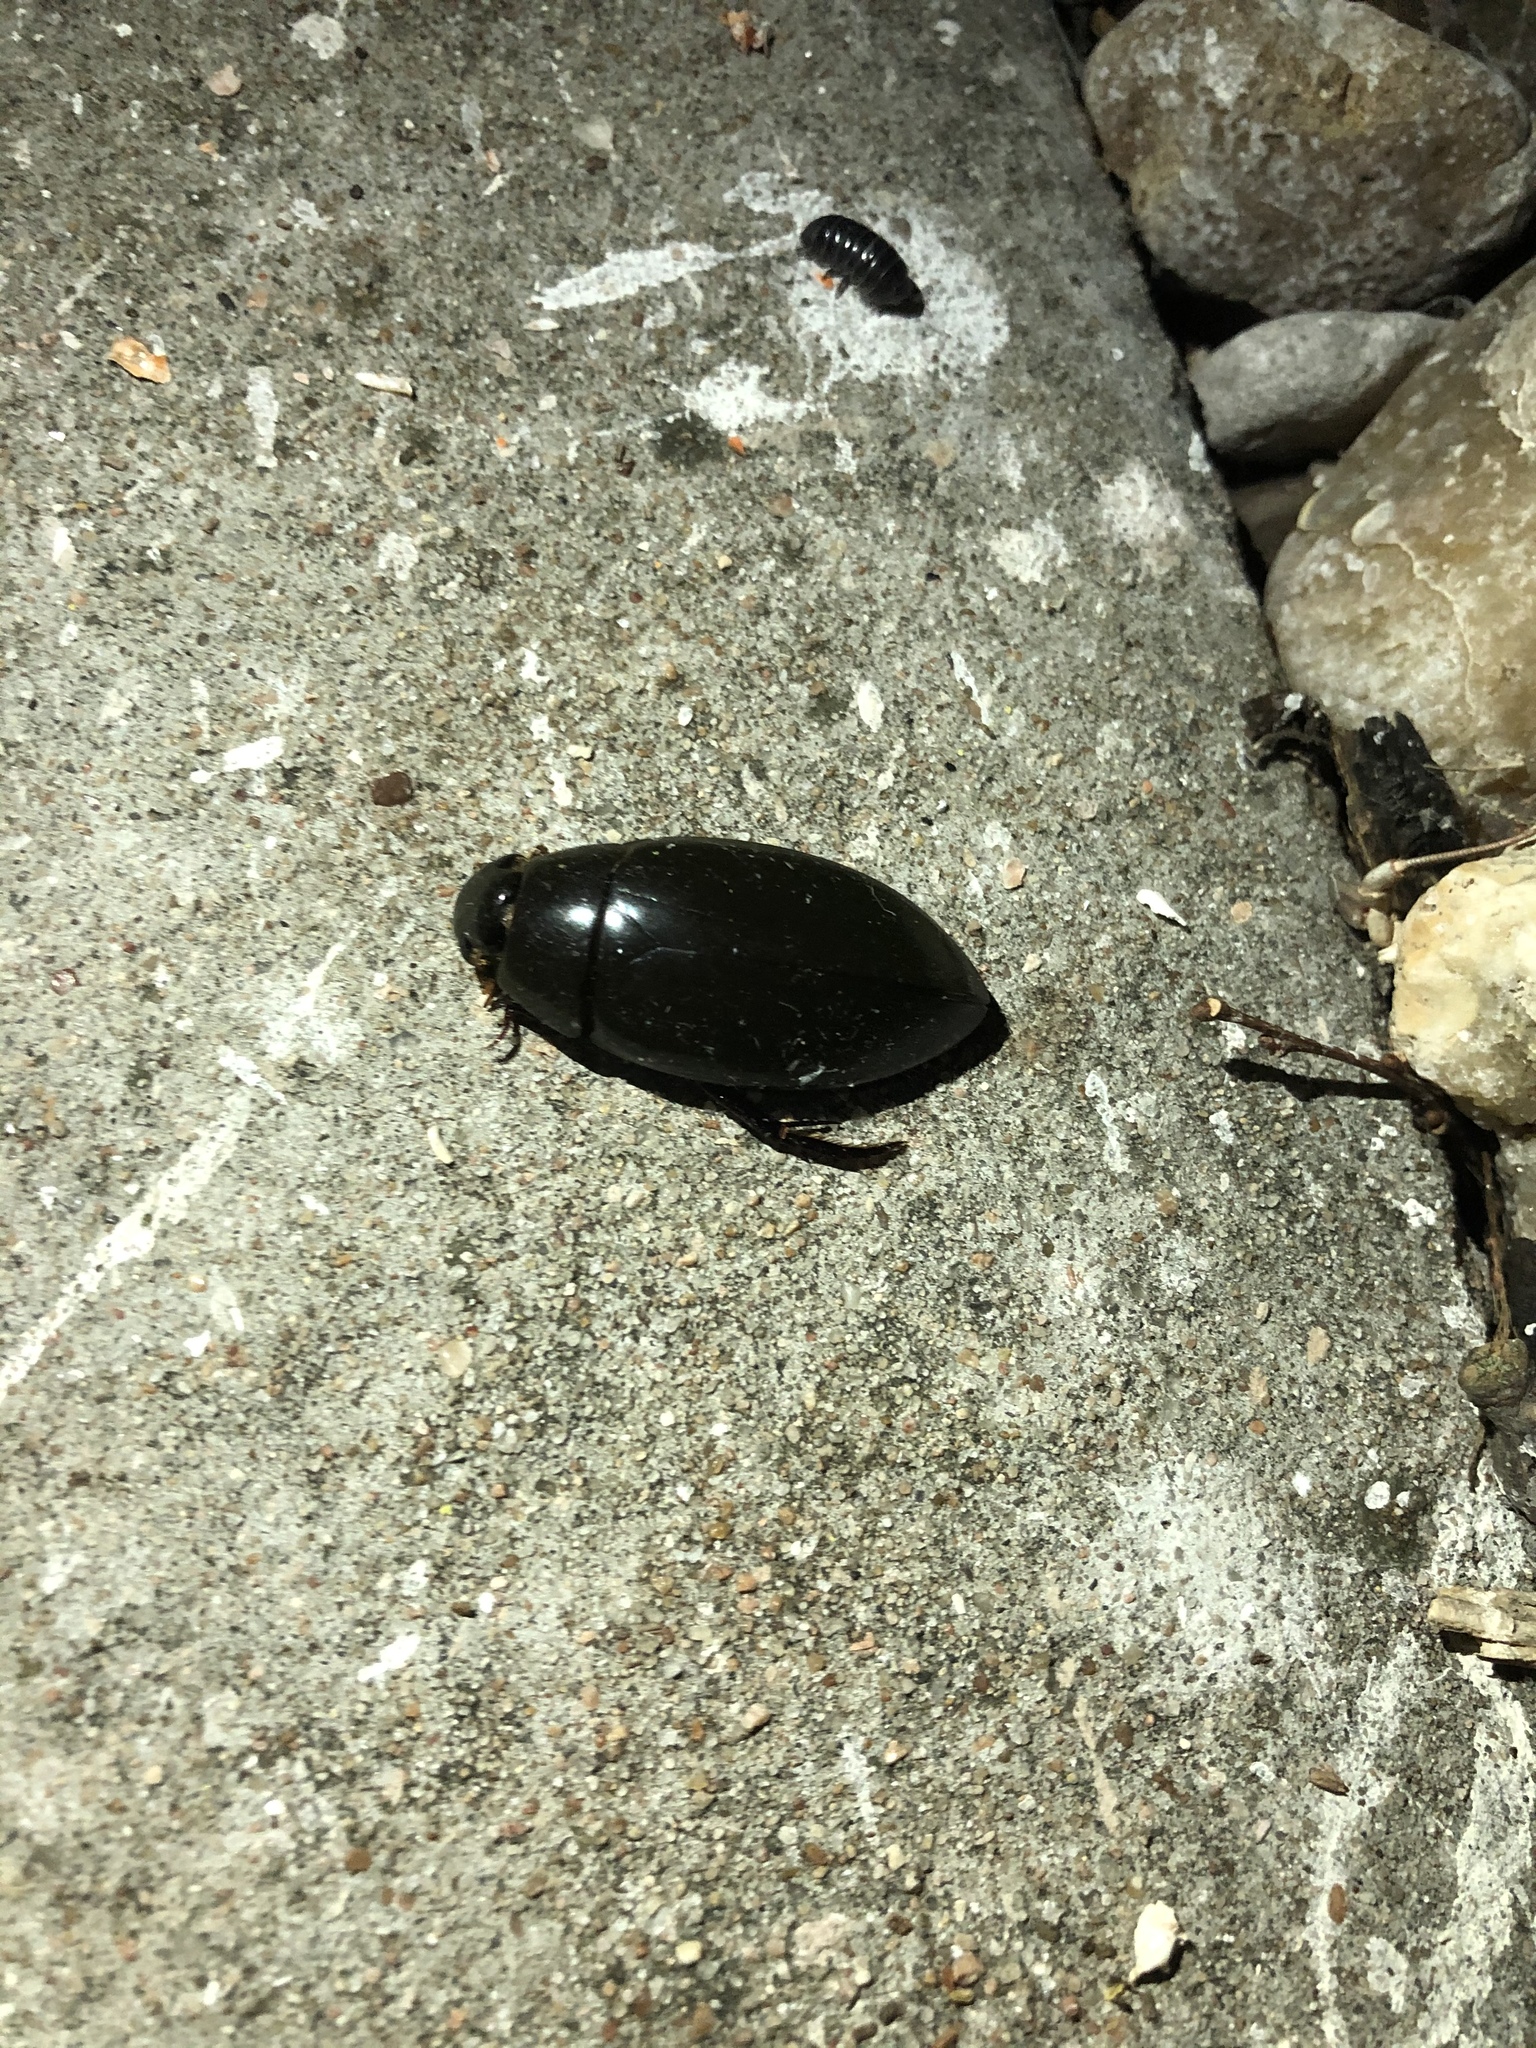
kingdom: Animalia
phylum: Arthropoda
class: Insecta
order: Coleoptera
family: Hydrophilidae
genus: Hydrophilus
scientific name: Hydrophilus
